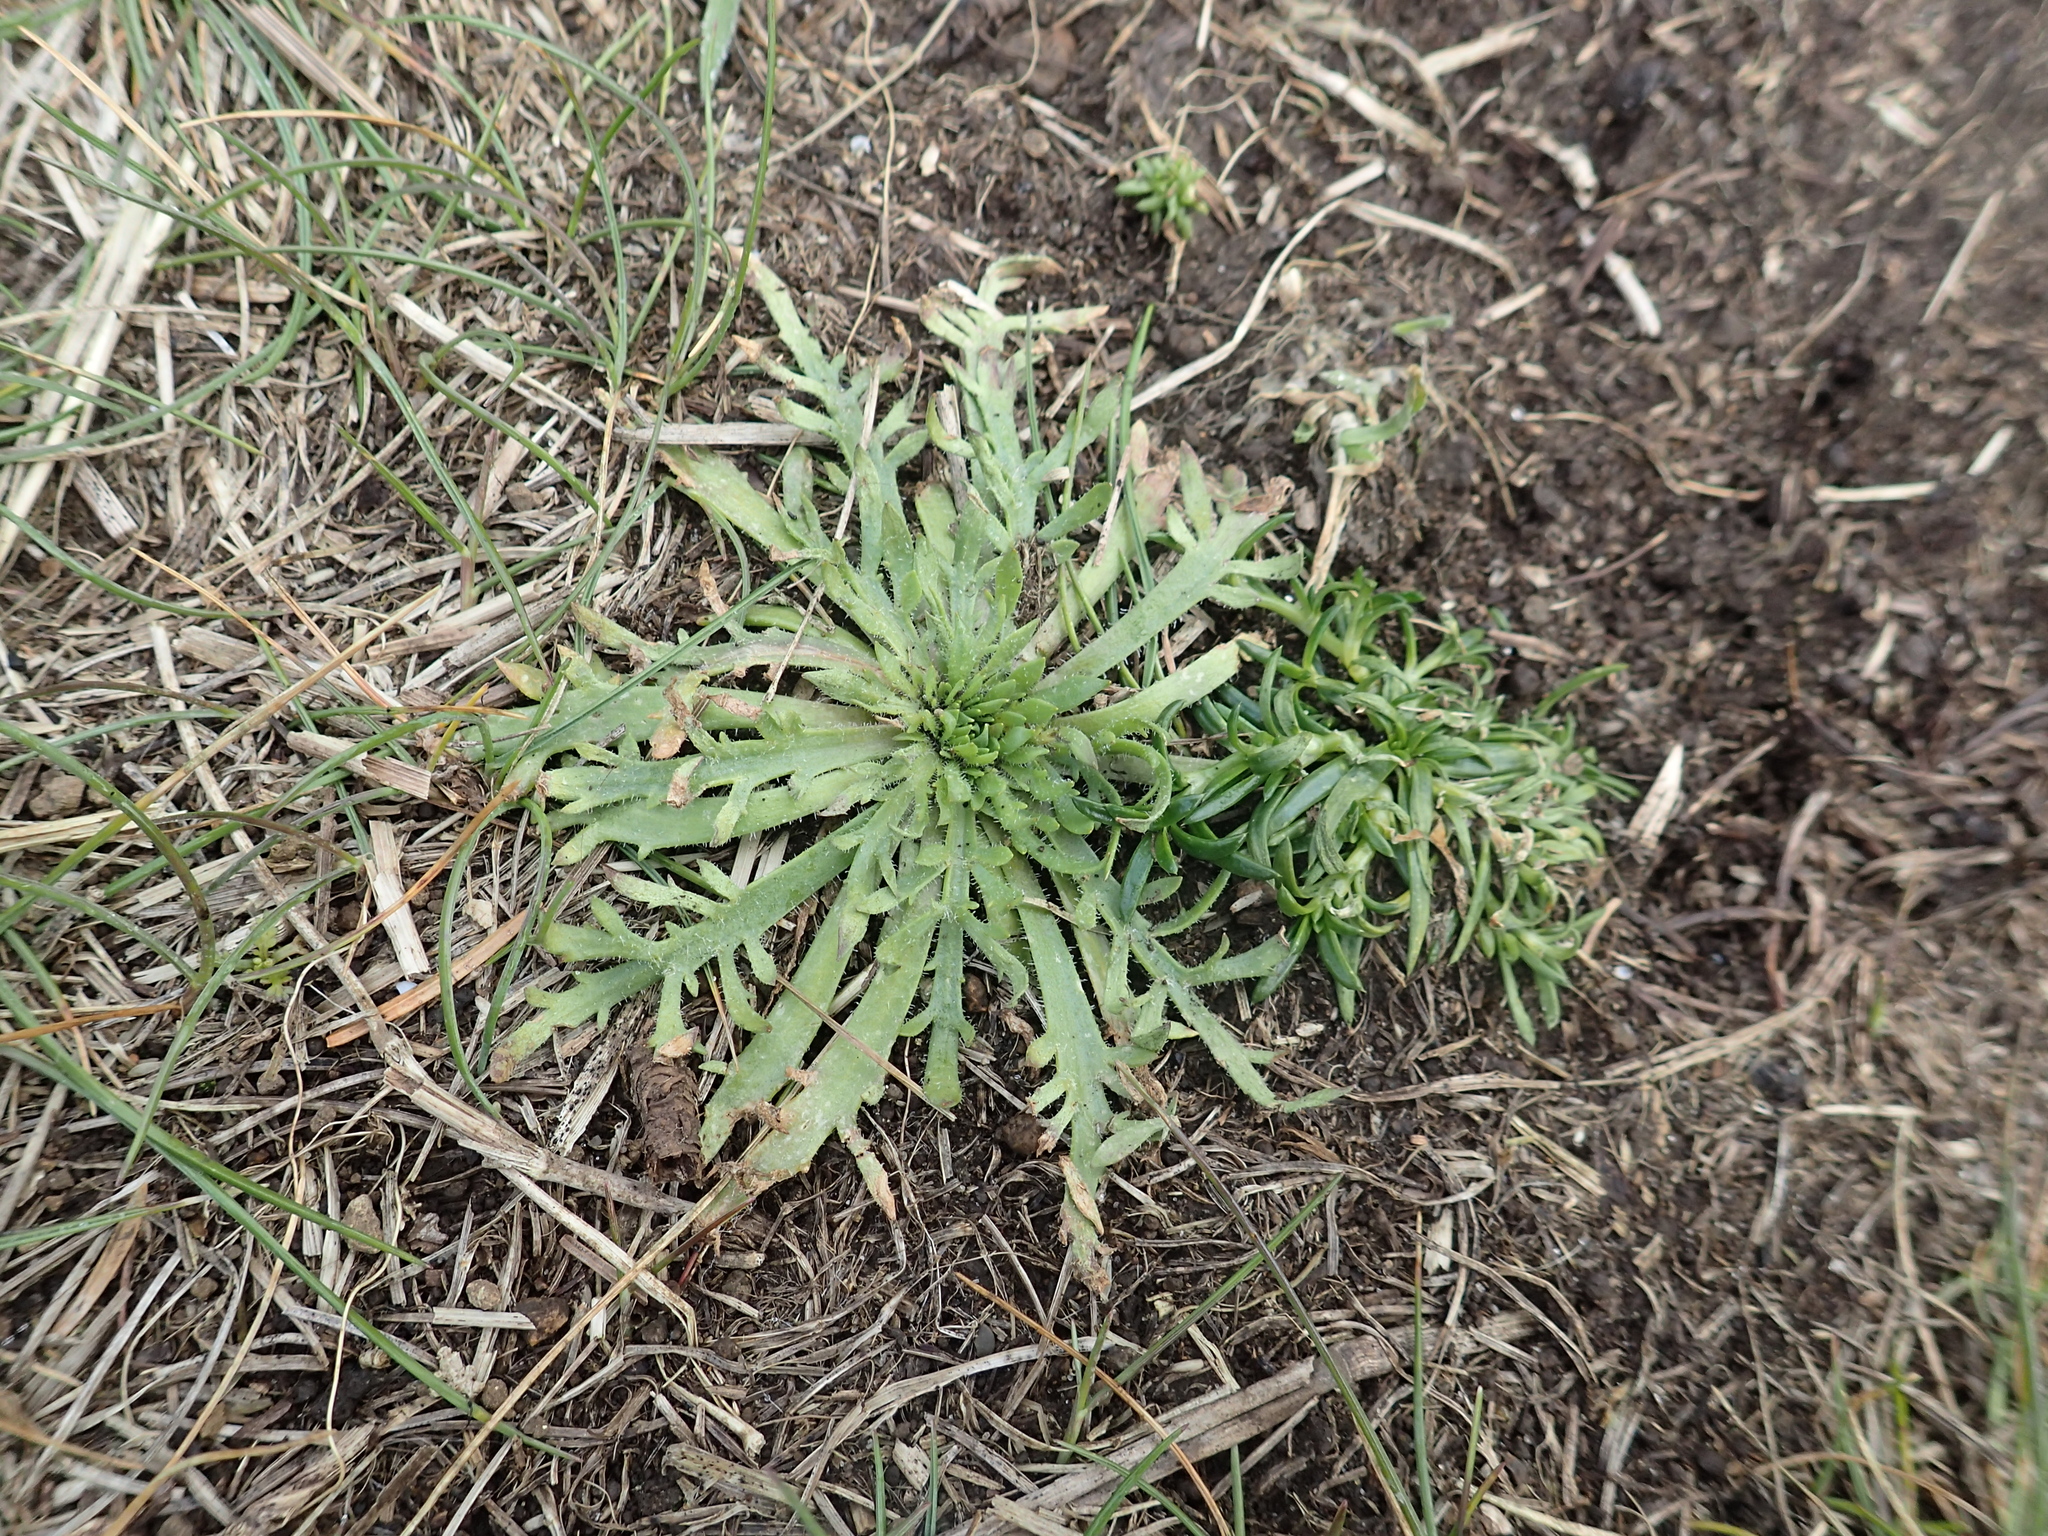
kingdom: Plantae
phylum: Tracheophyta
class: Magnoliopsida
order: Lamiales
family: Plantaginaceae
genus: Plantago
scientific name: Plantago coronopus
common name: Buck's-horn plantain
